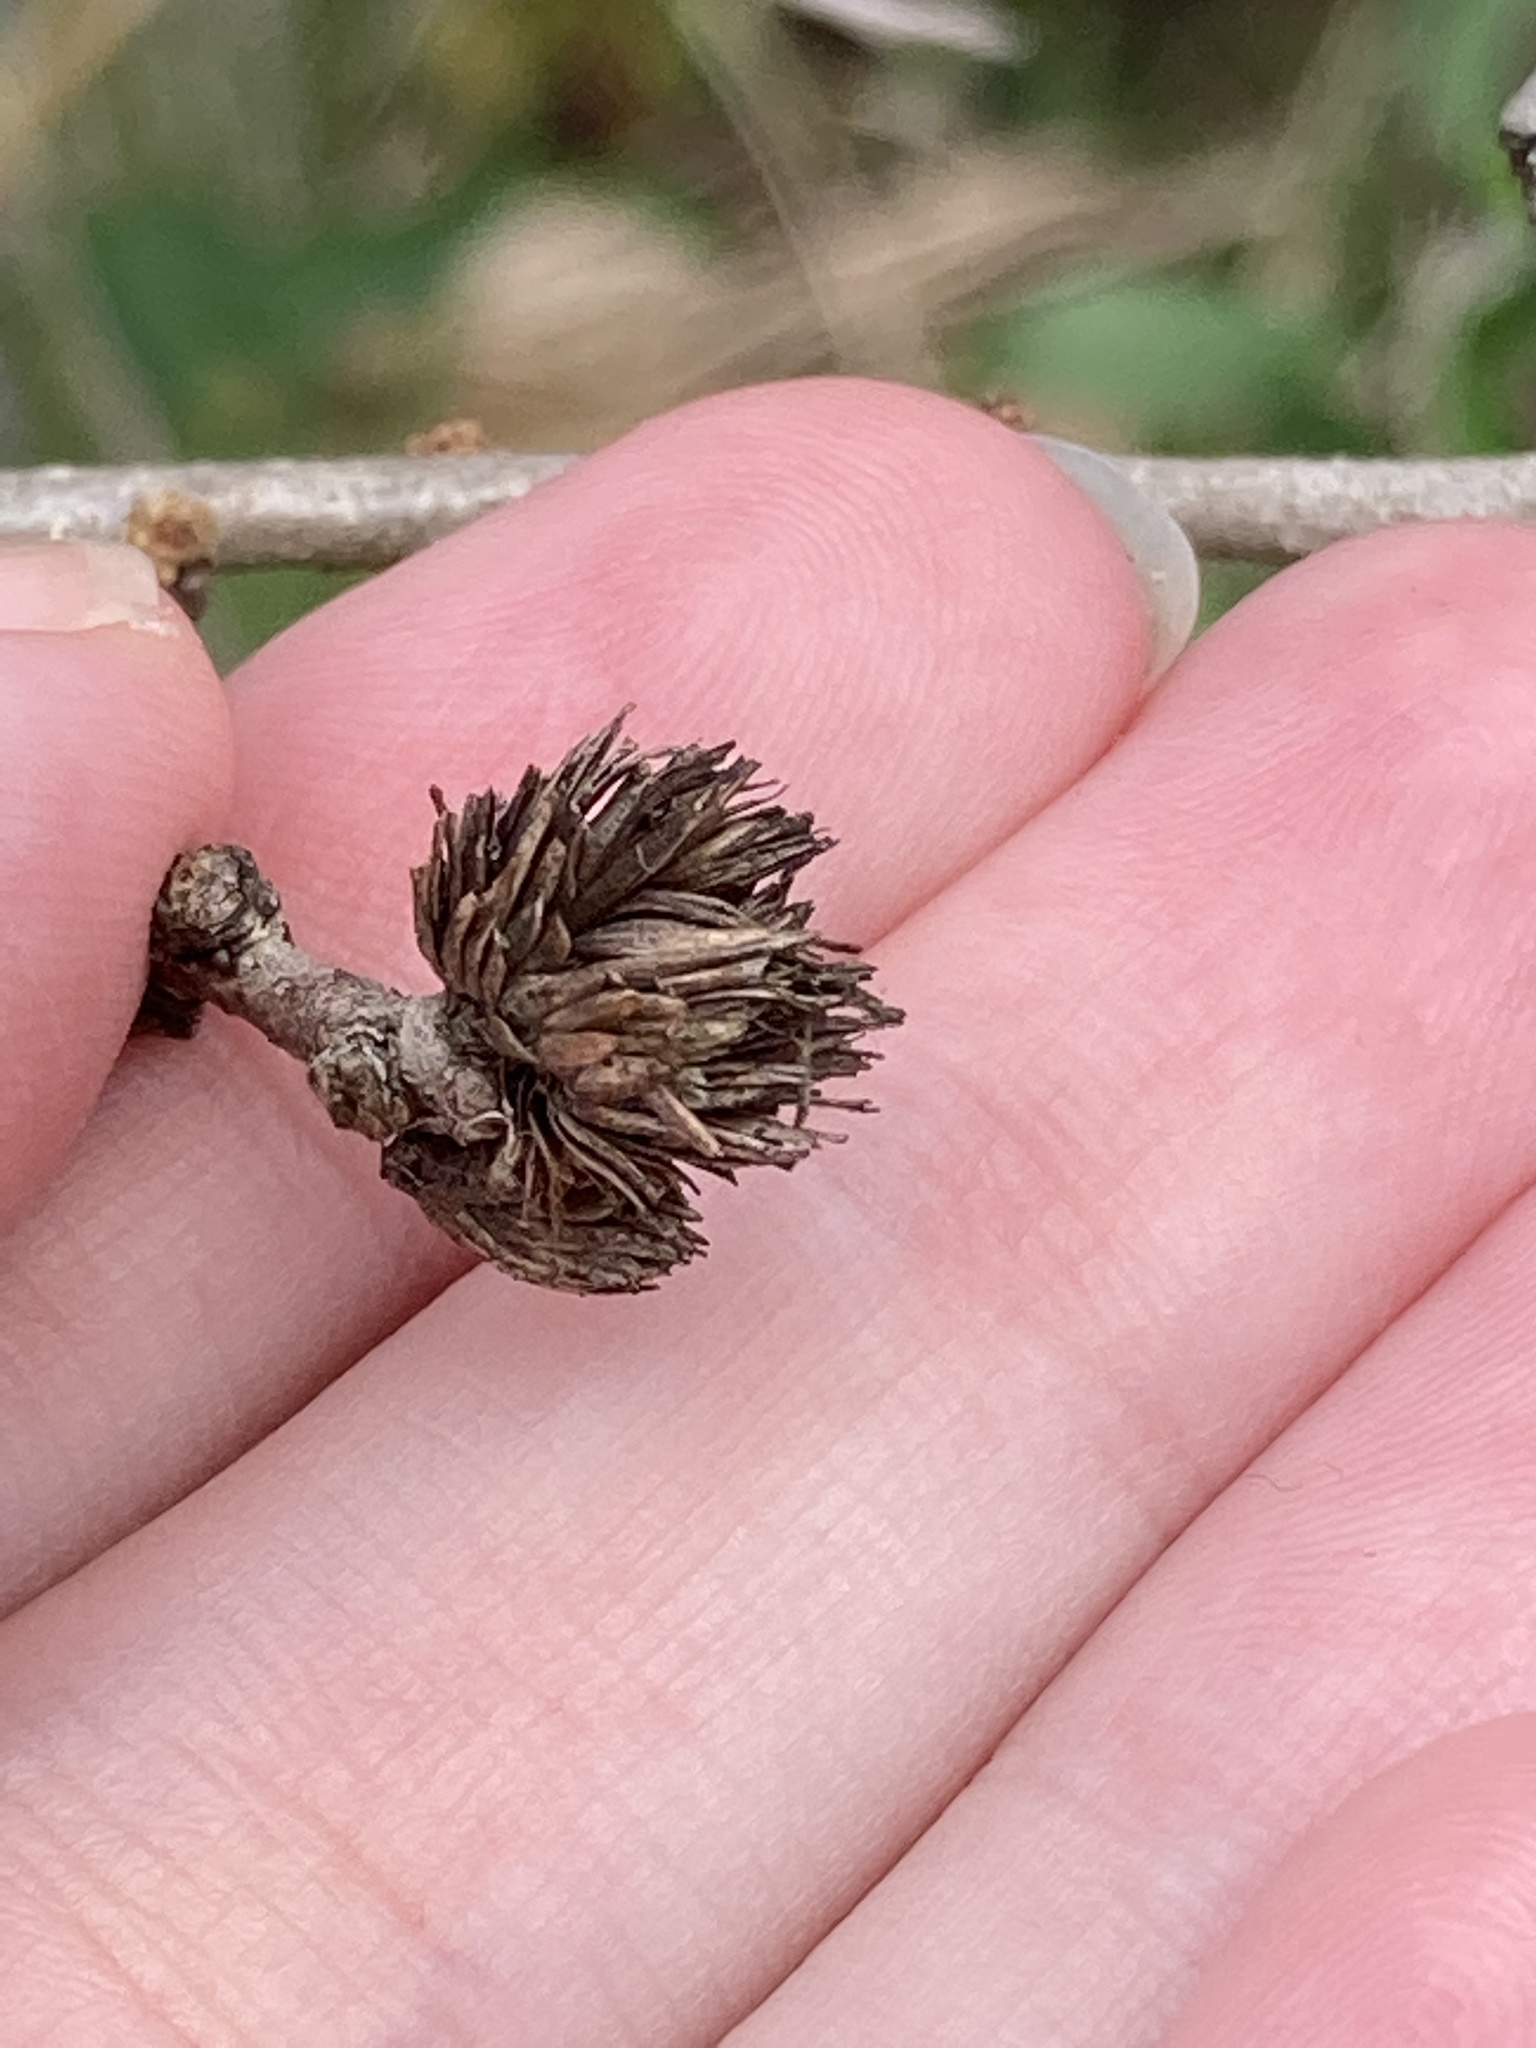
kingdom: Animalia
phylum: Arthropoda
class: Insecta
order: Hymenoptera
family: Cynipidae
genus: Andricus
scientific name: Andricus quercusfoliatus
